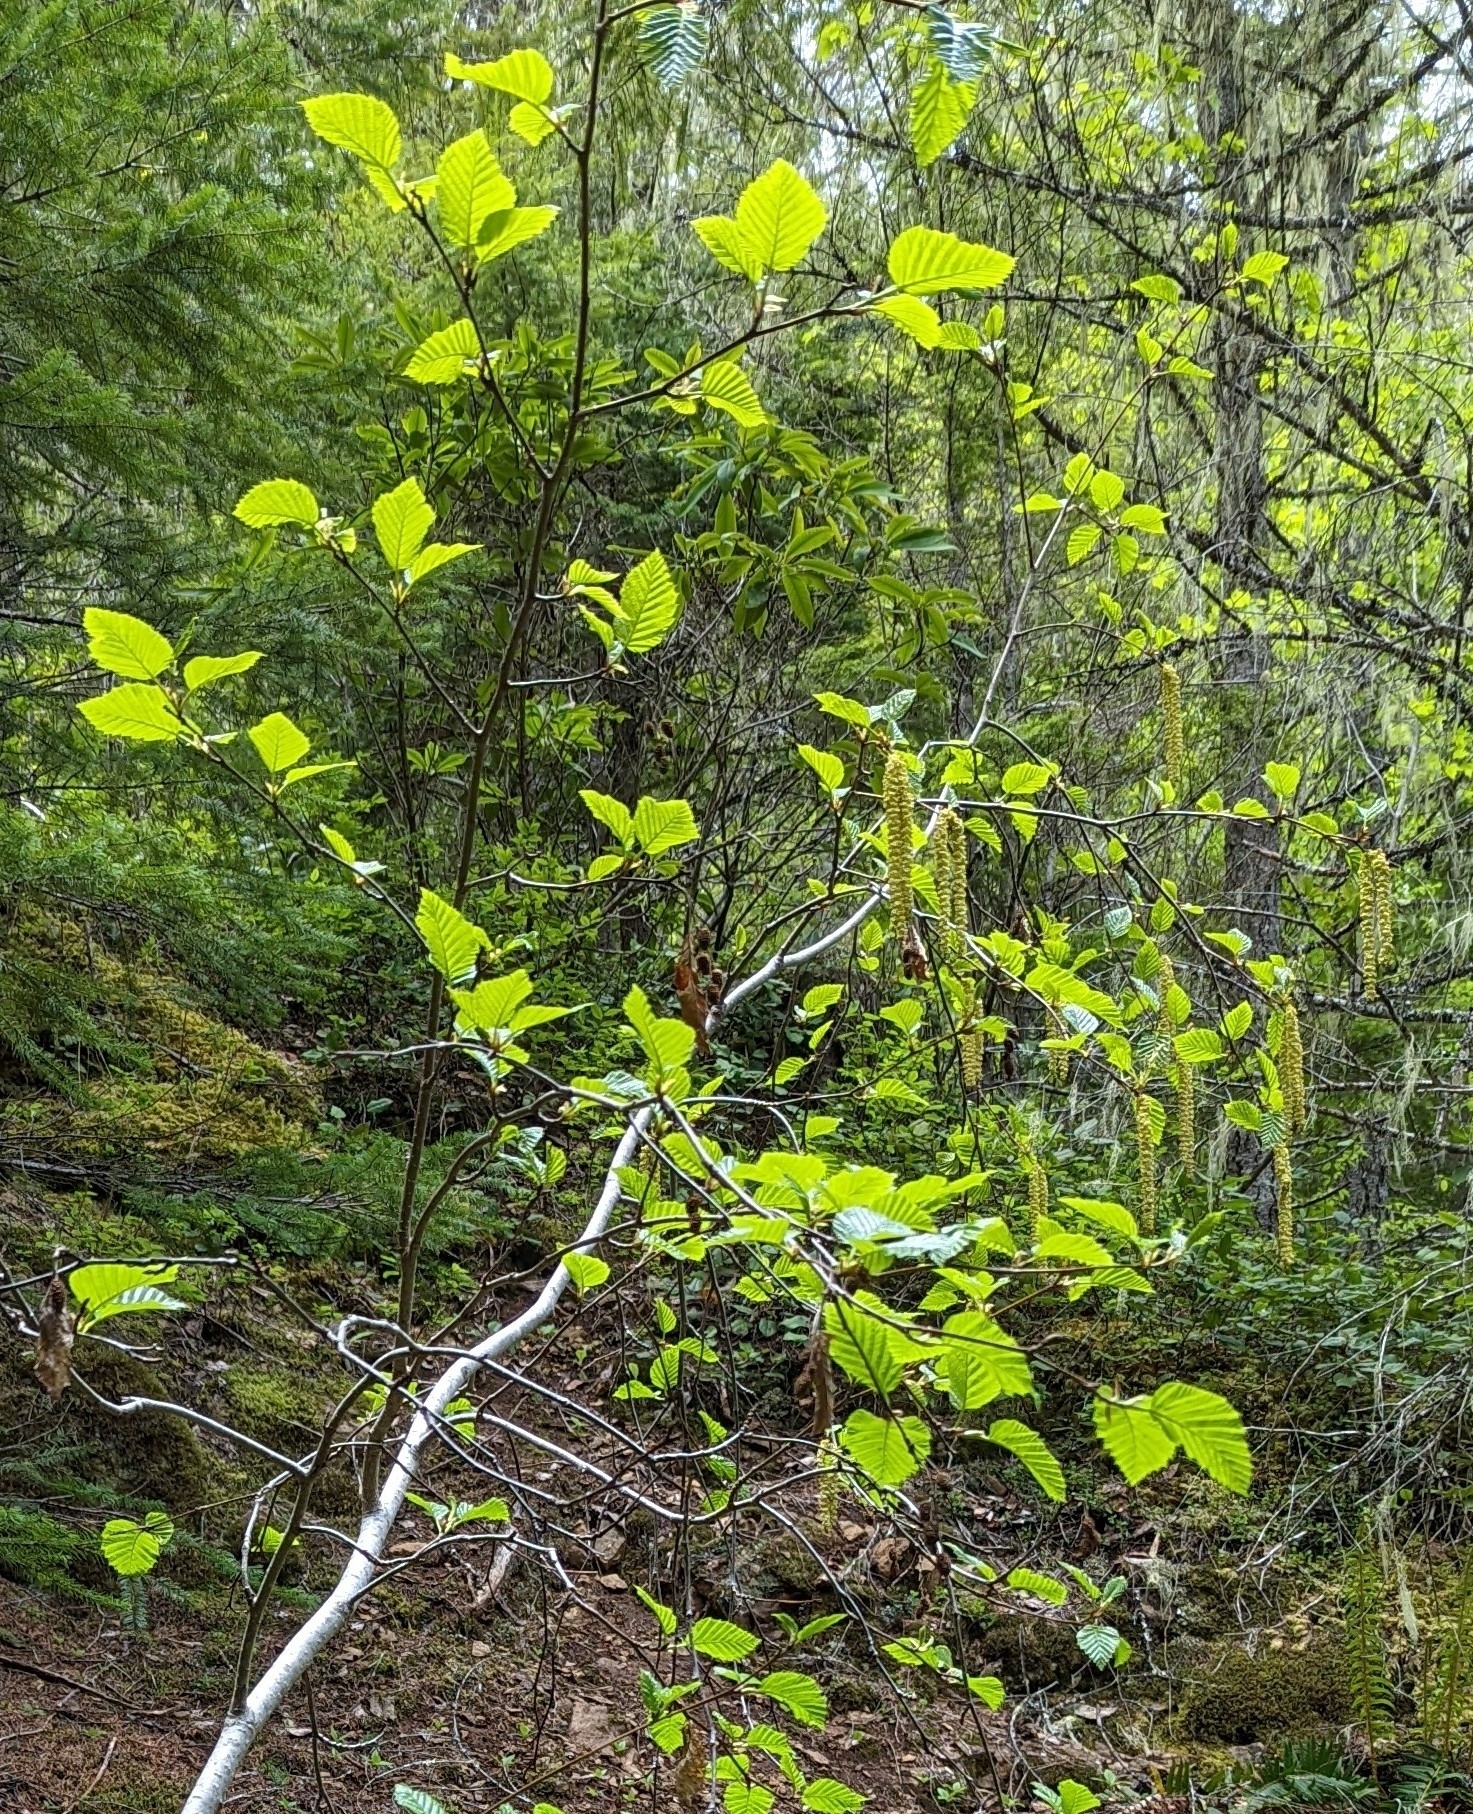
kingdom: Plantae
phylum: Tracheophyta
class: Magnoliopsida
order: Fagales
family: Betulaceae
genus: Alnus
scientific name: Alnus alnobetula
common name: Green alder
